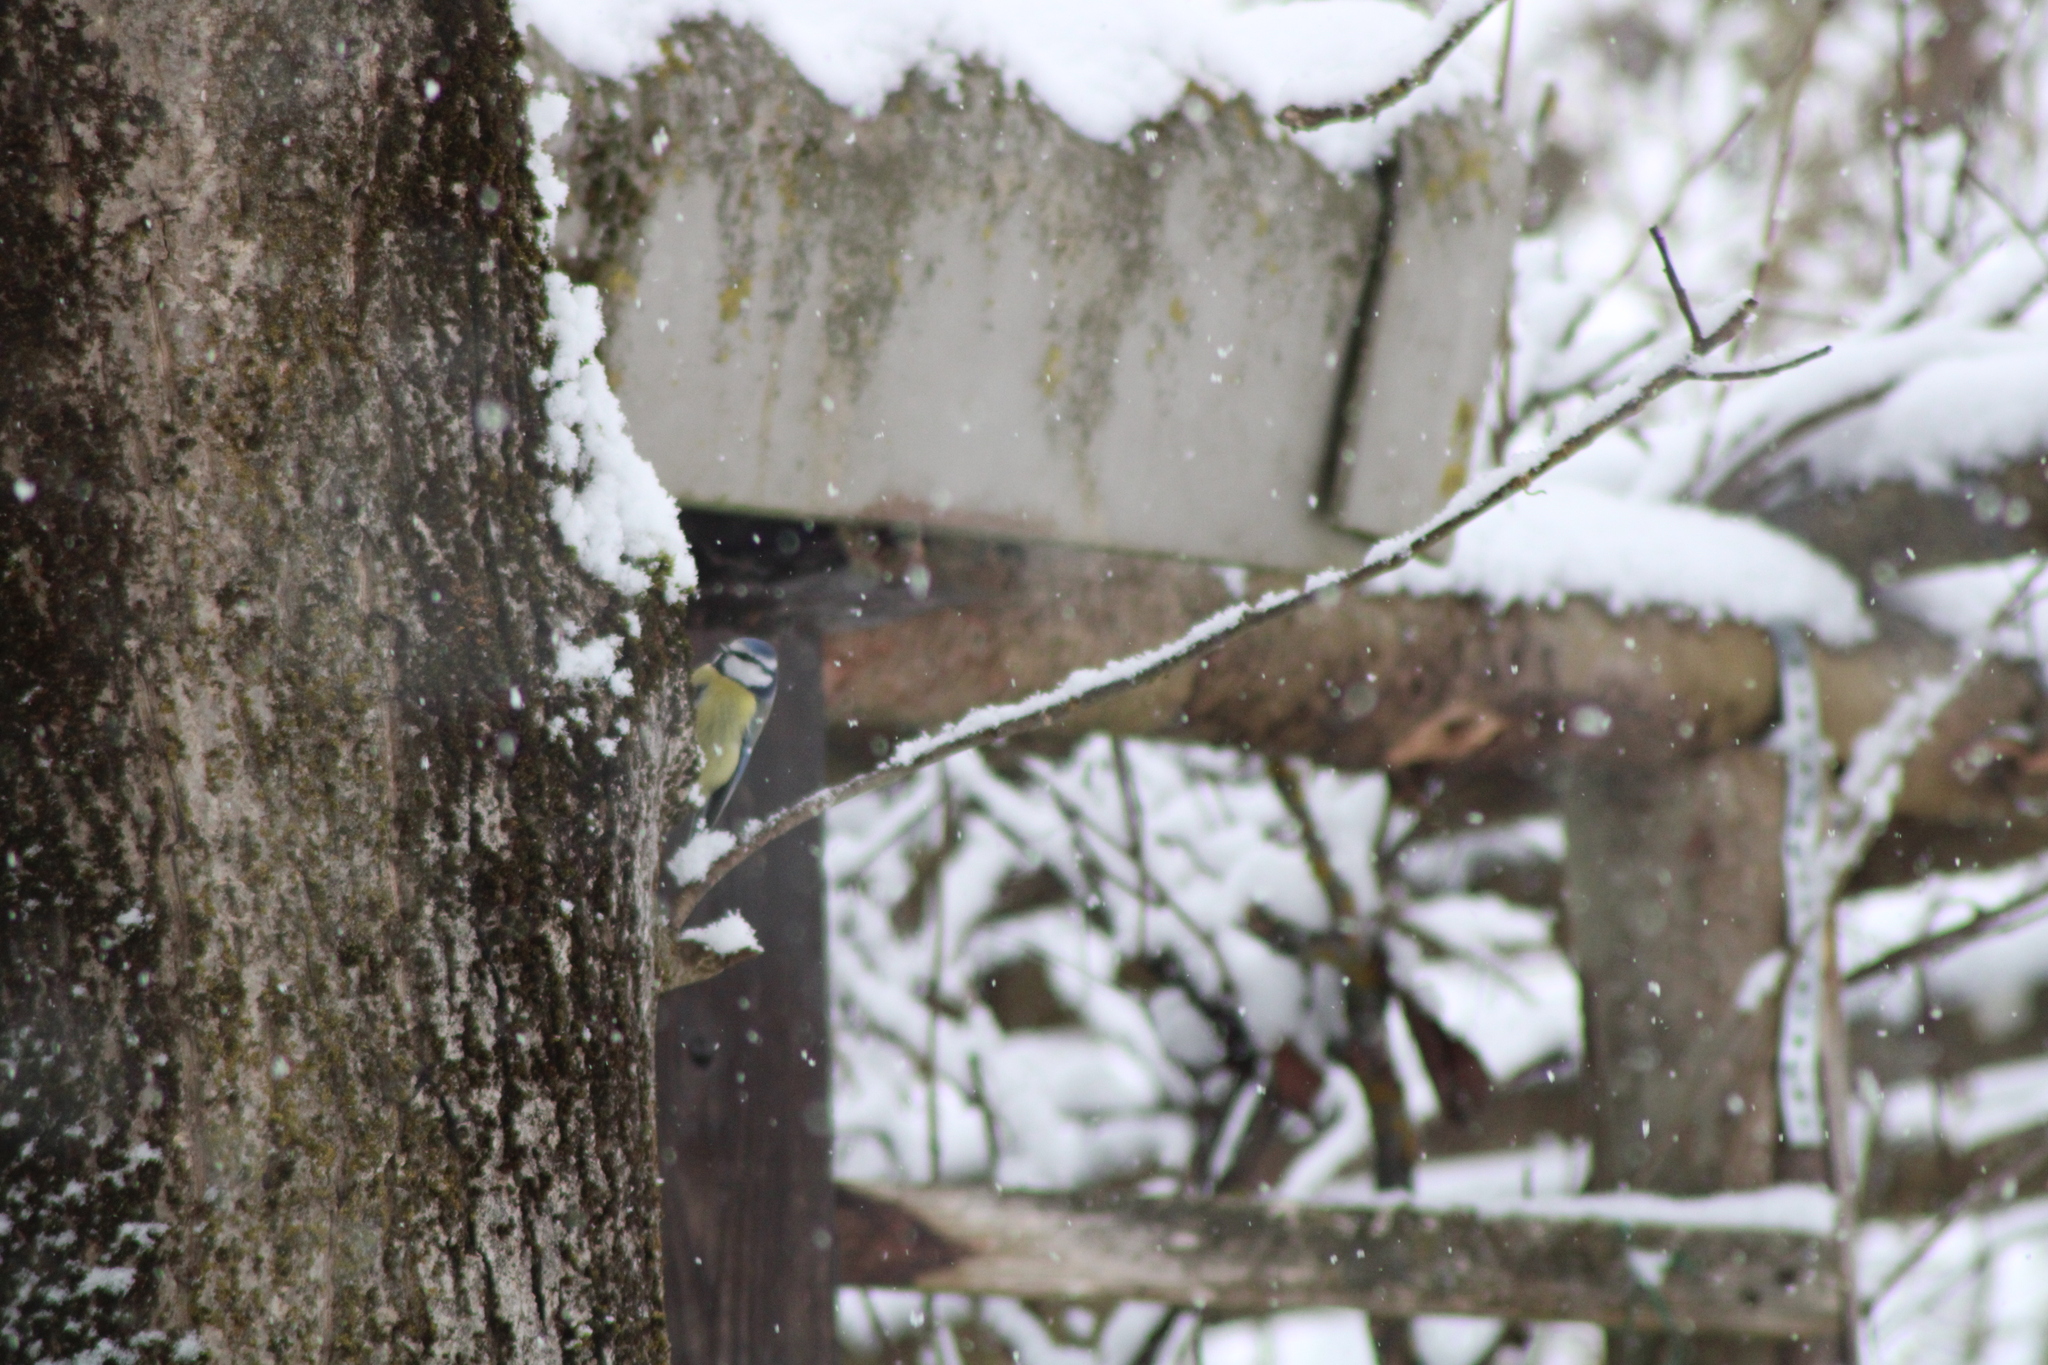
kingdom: Animalia
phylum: Chordata
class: Aves
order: Passeriformes
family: Paridae
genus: Cyanistes
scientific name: Cyanistes caeruleus
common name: Eurasian blue tit
